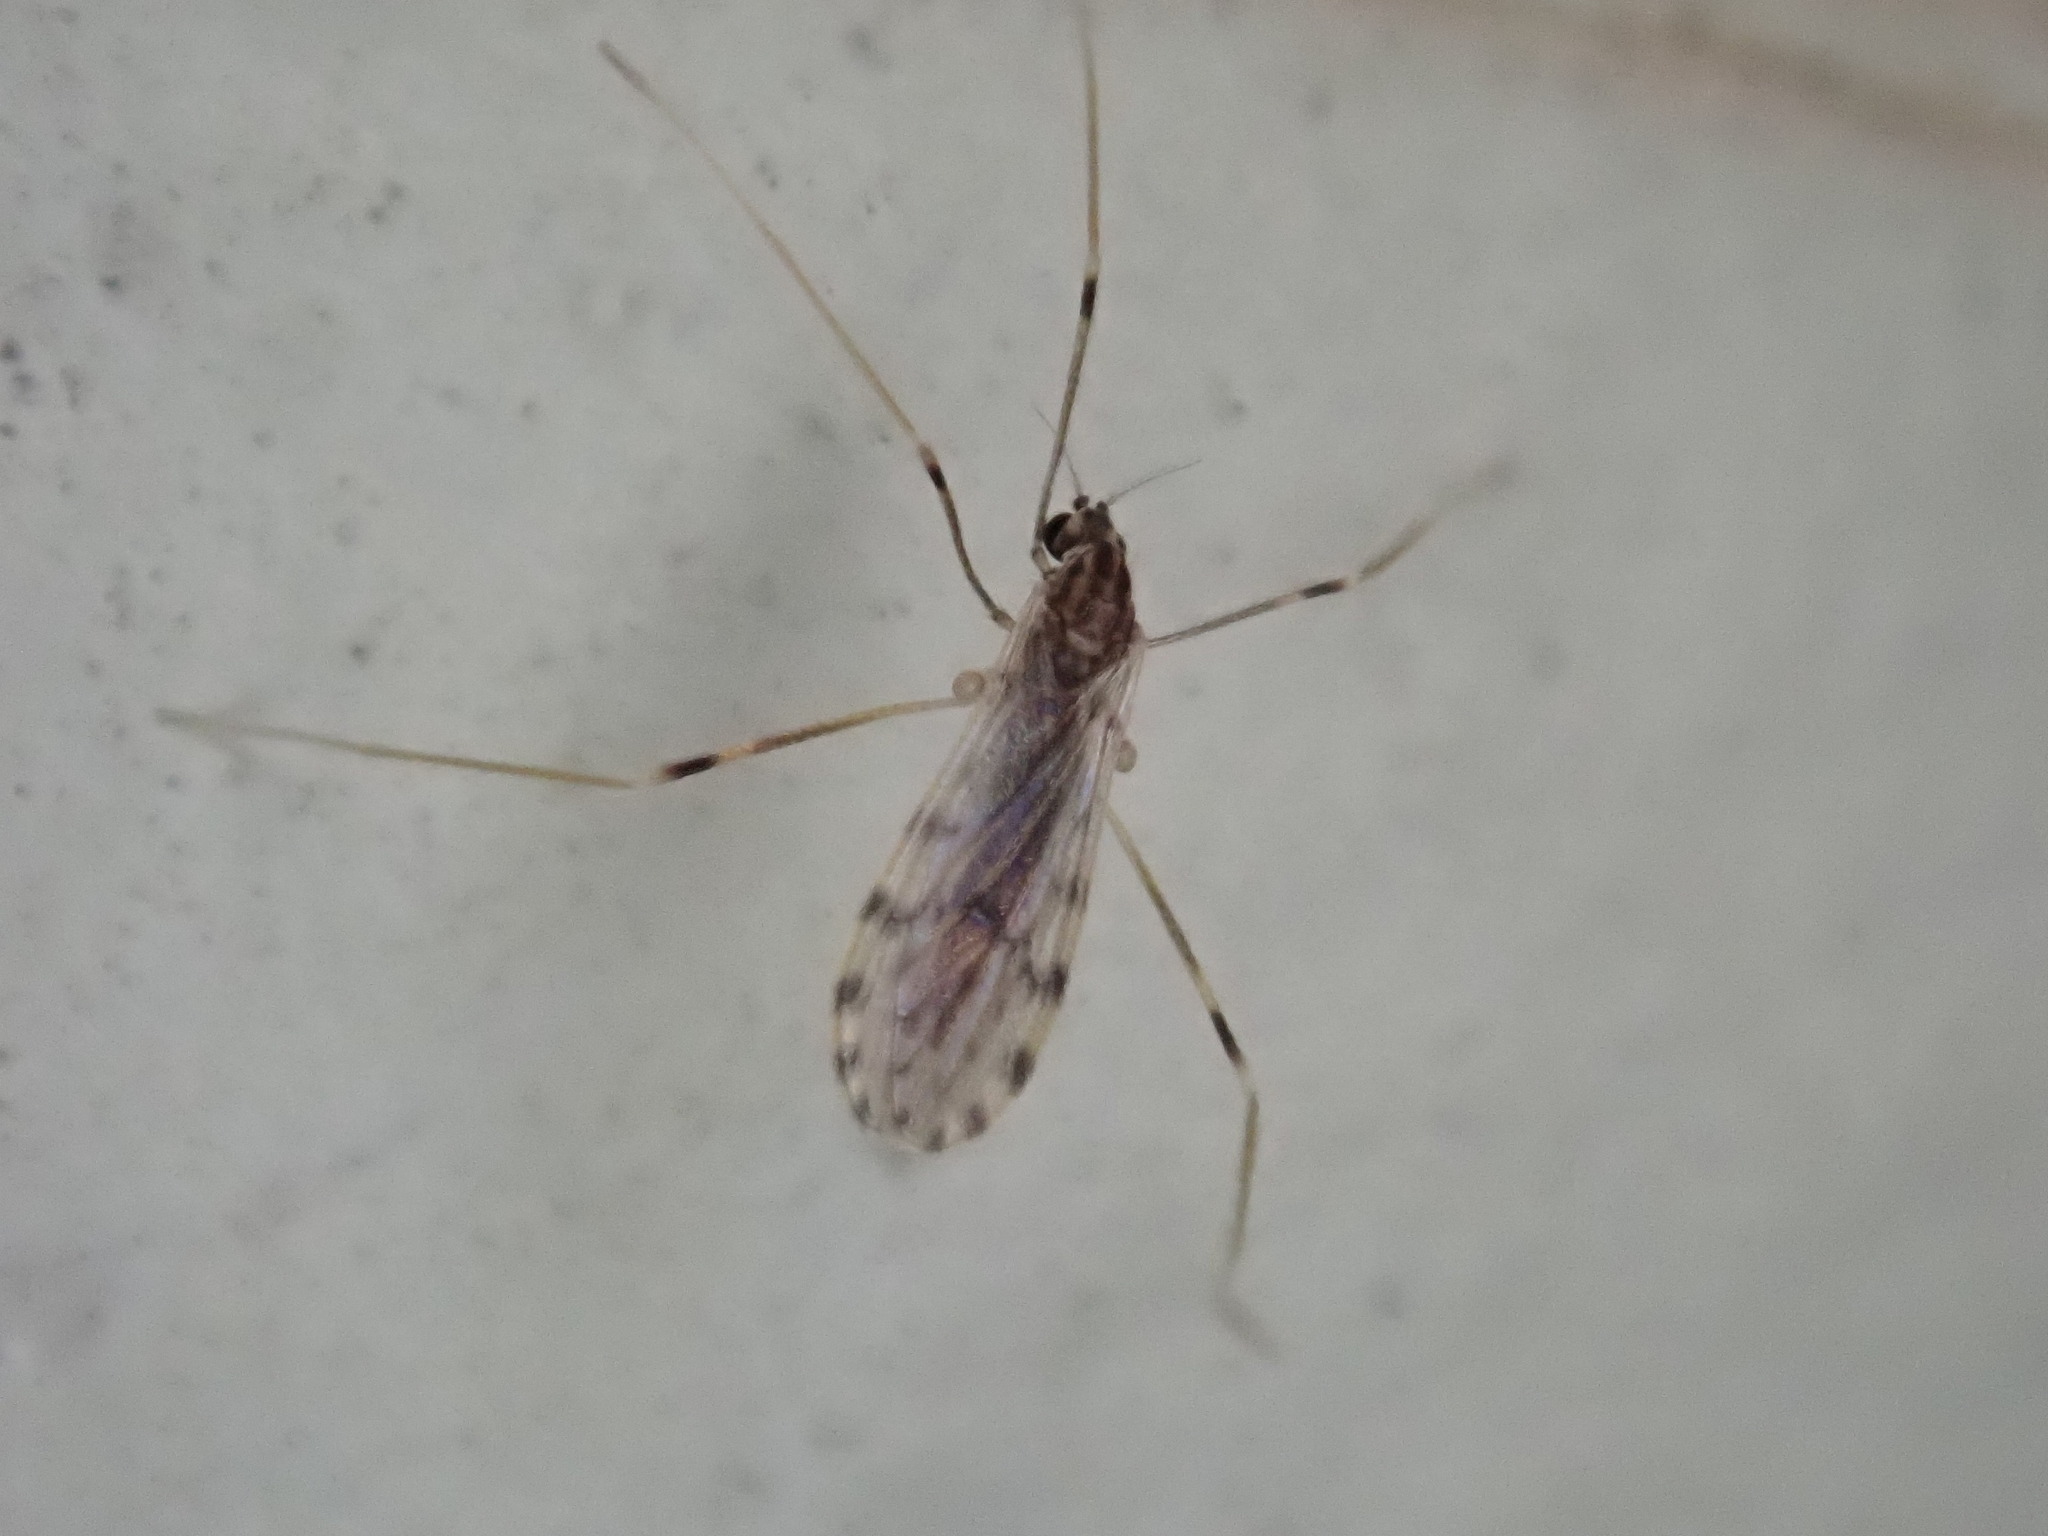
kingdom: Animalia
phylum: Arthropoda
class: Insecta
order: Diptera
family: Limoniidae
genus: Erioptera
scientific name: Erioptera parva
